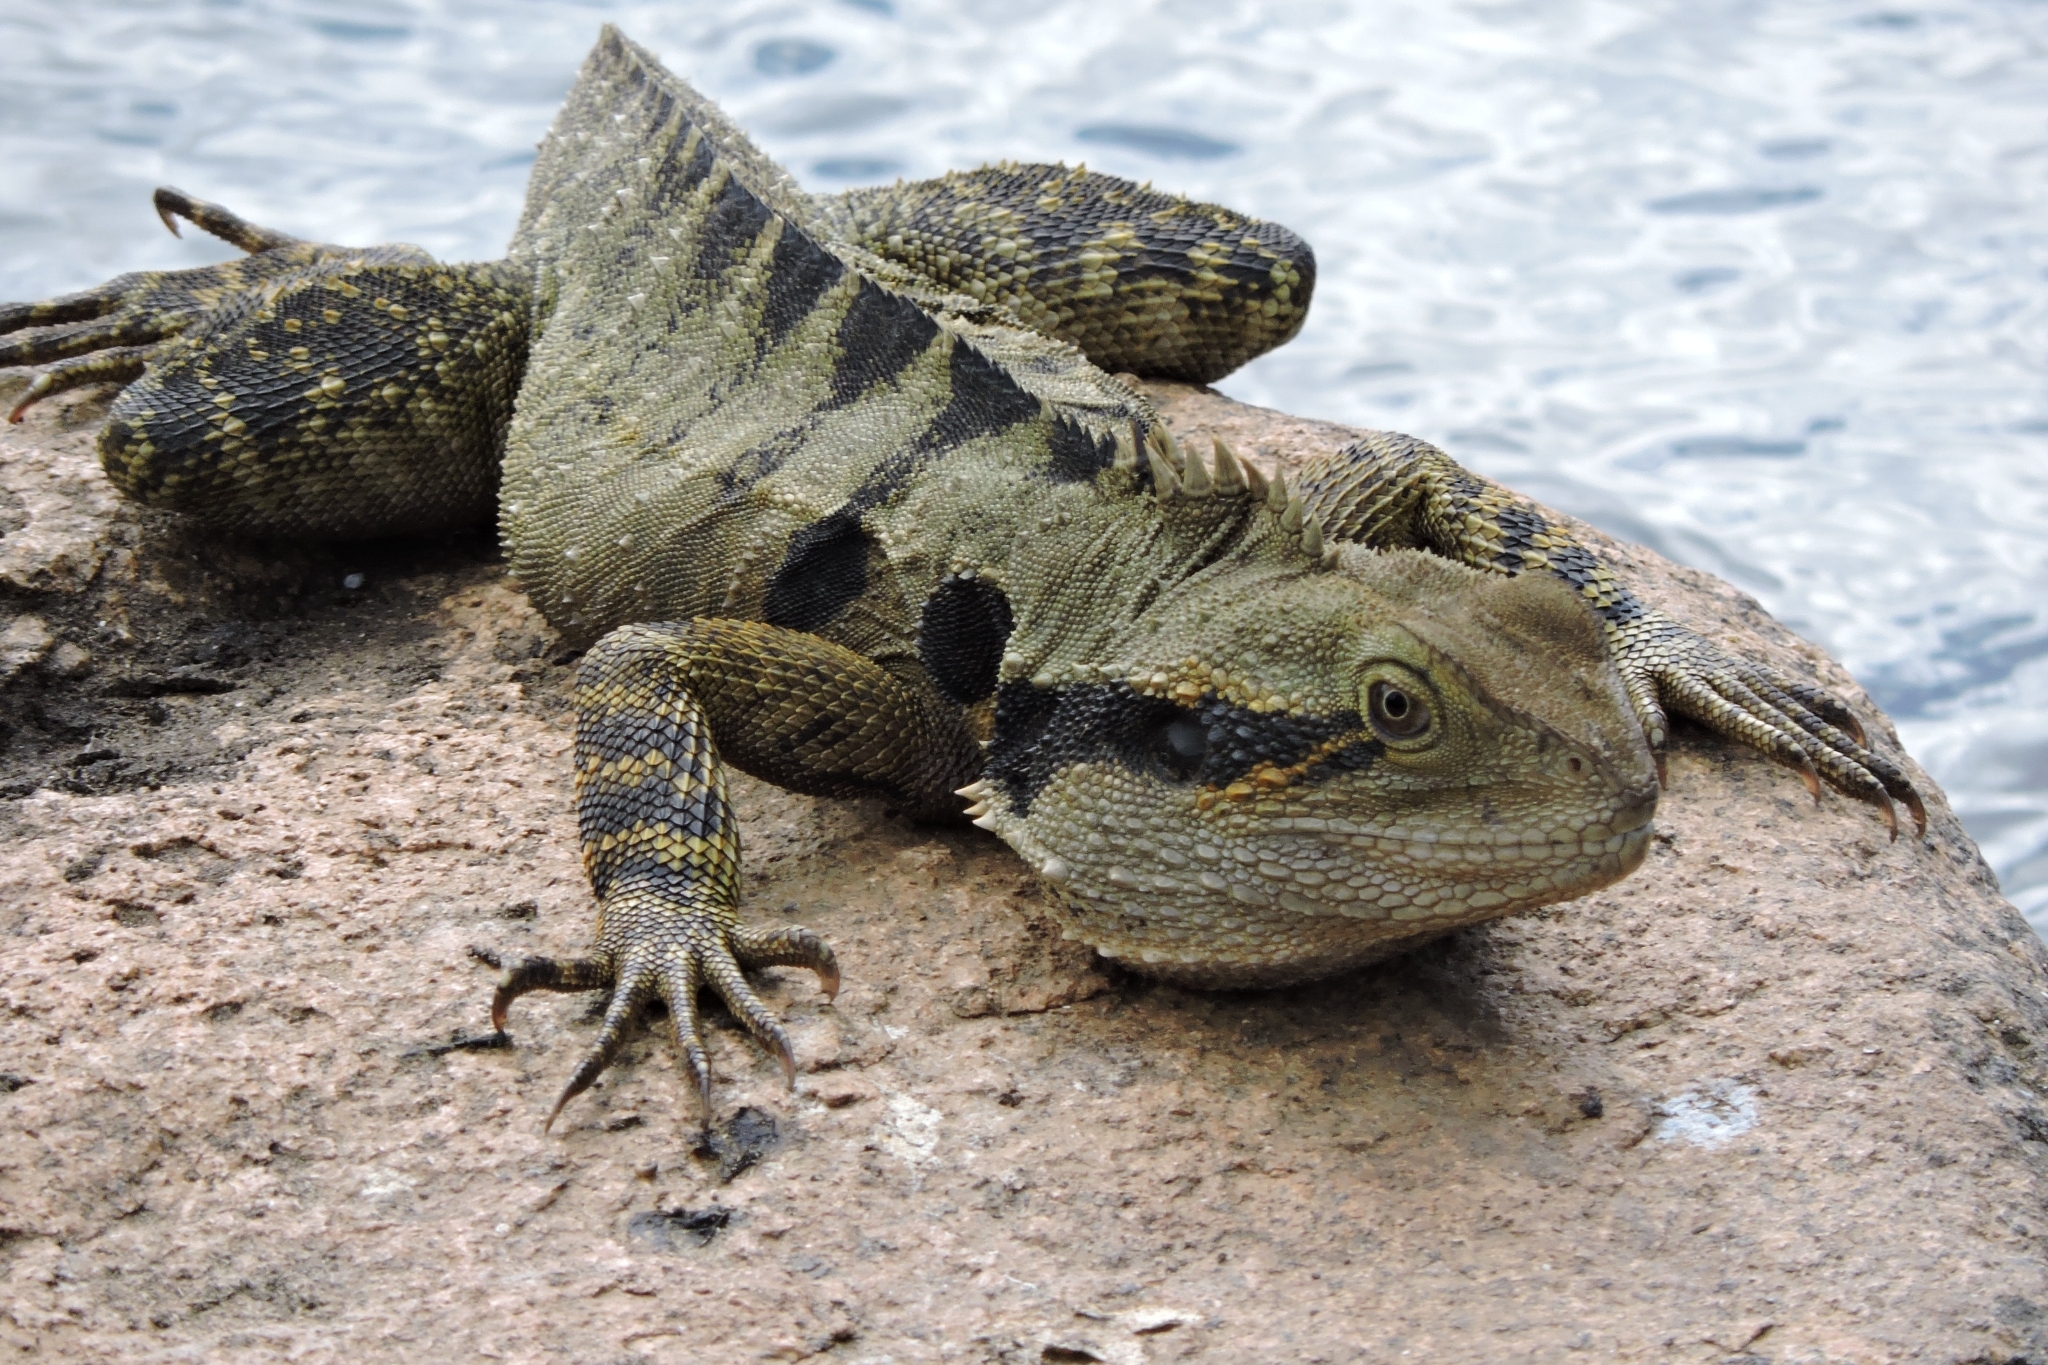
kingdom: Animalia
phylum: Chordata
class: Squamata
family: Agamidae
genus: Intellagama
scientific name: Intellagama lesueurii
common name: Eastern water dragon
